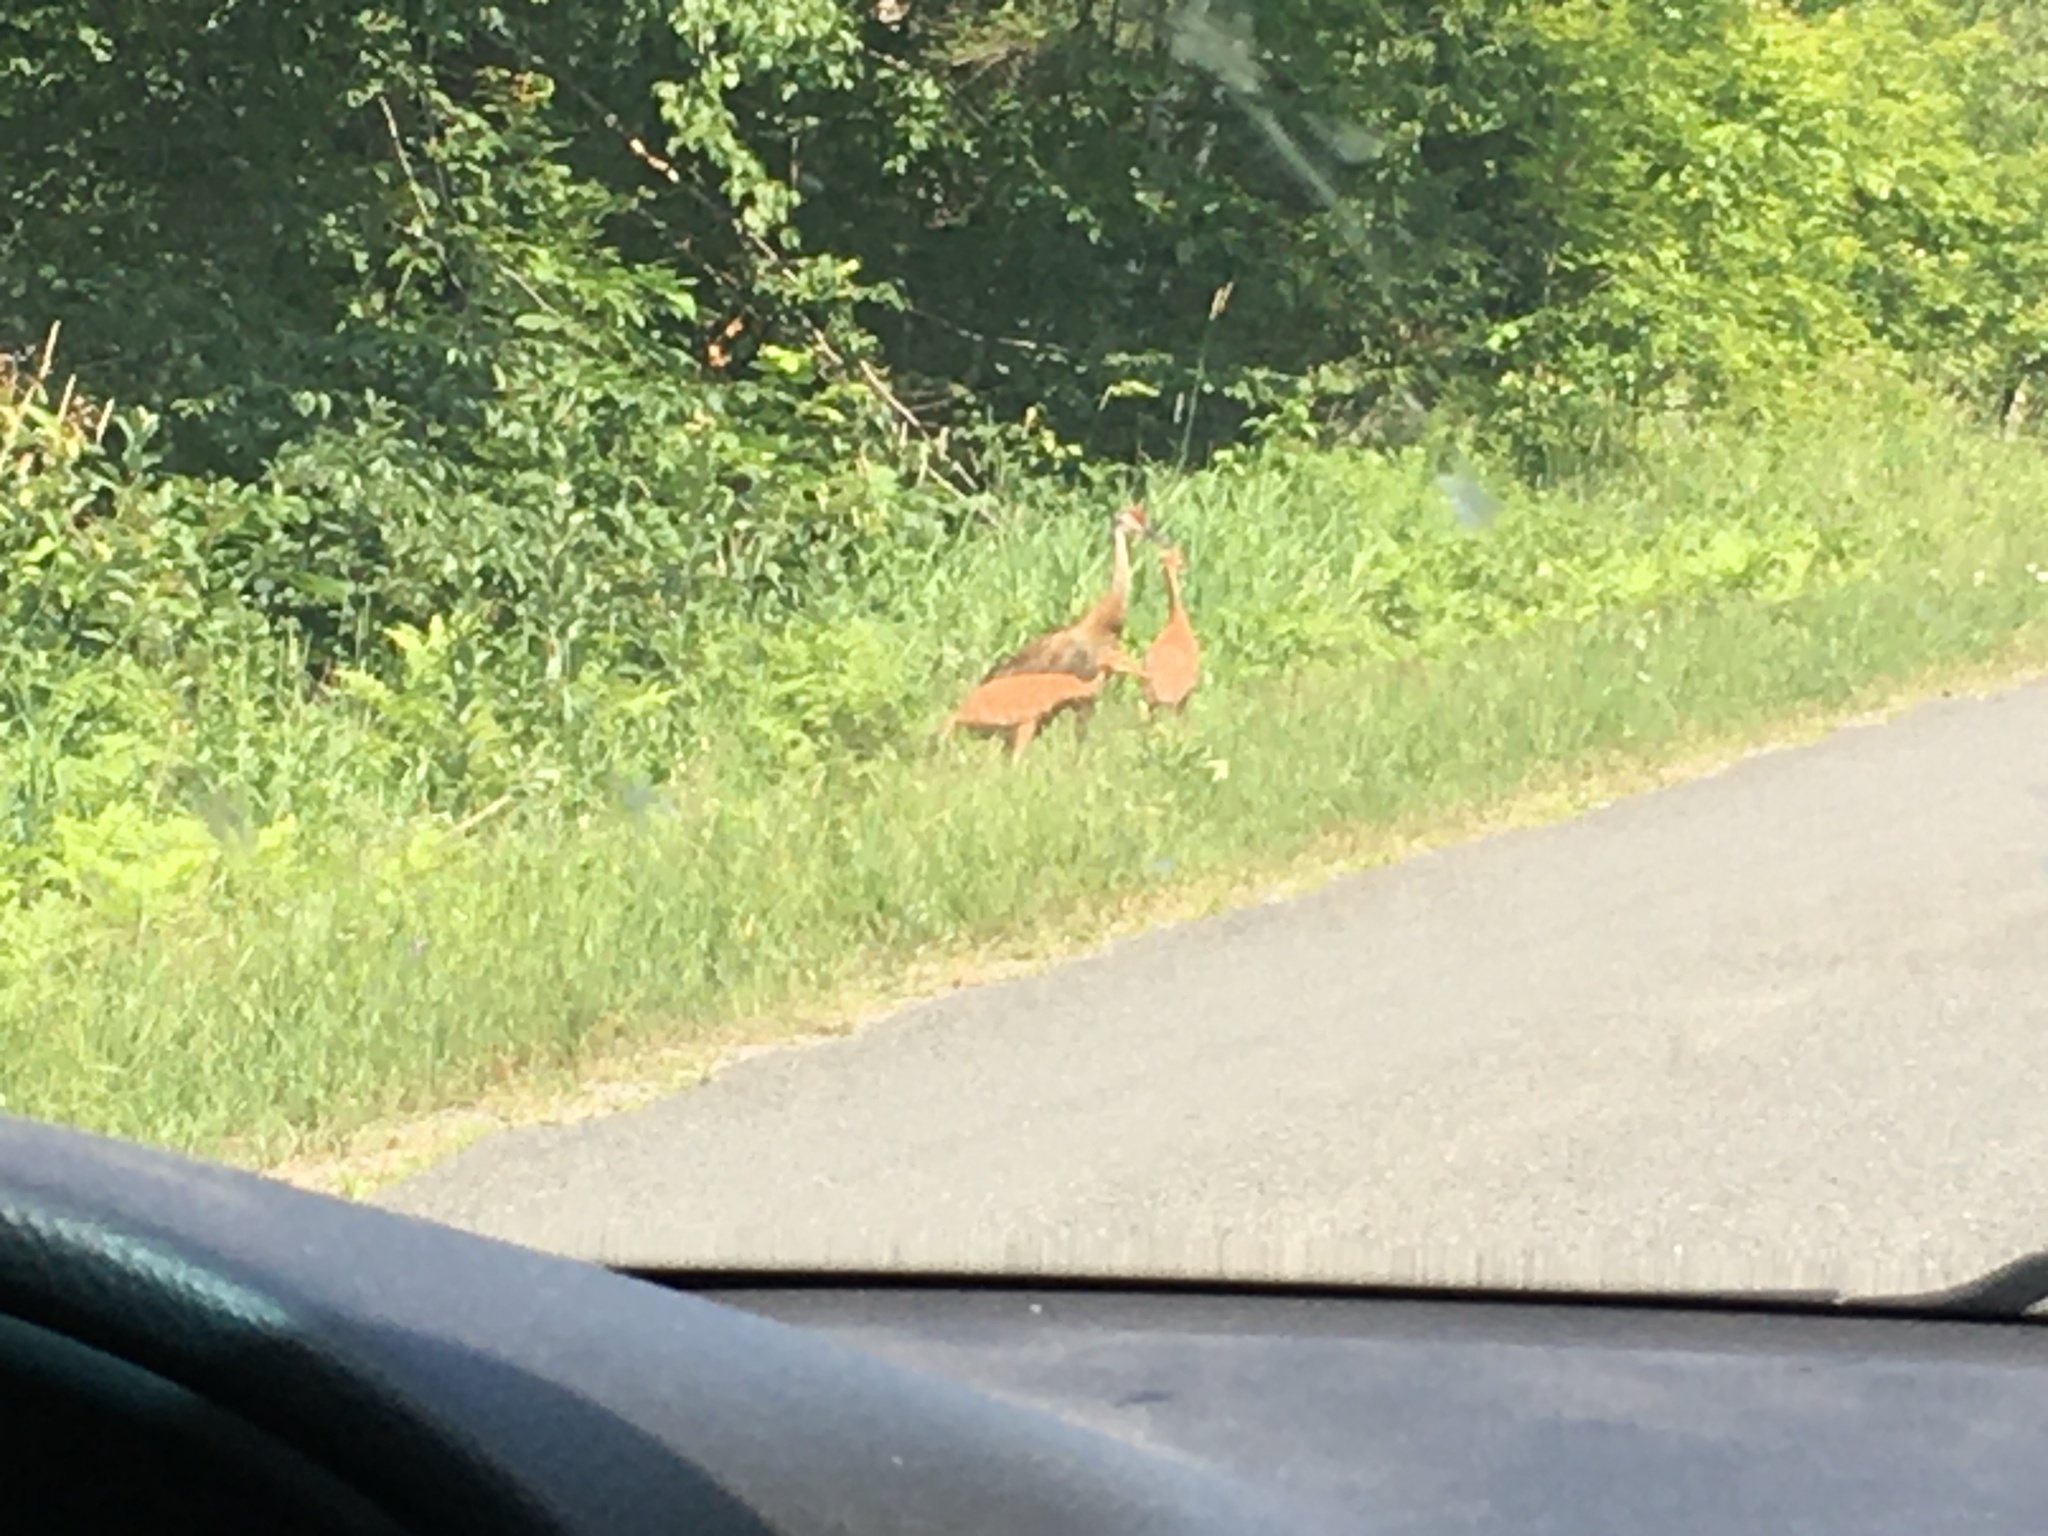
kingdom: Animalia
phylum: Chordata
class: Aves
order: Gruiformes
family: Gruidae
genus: Grus
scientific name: Grus canadensis
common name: Sandhill crane
